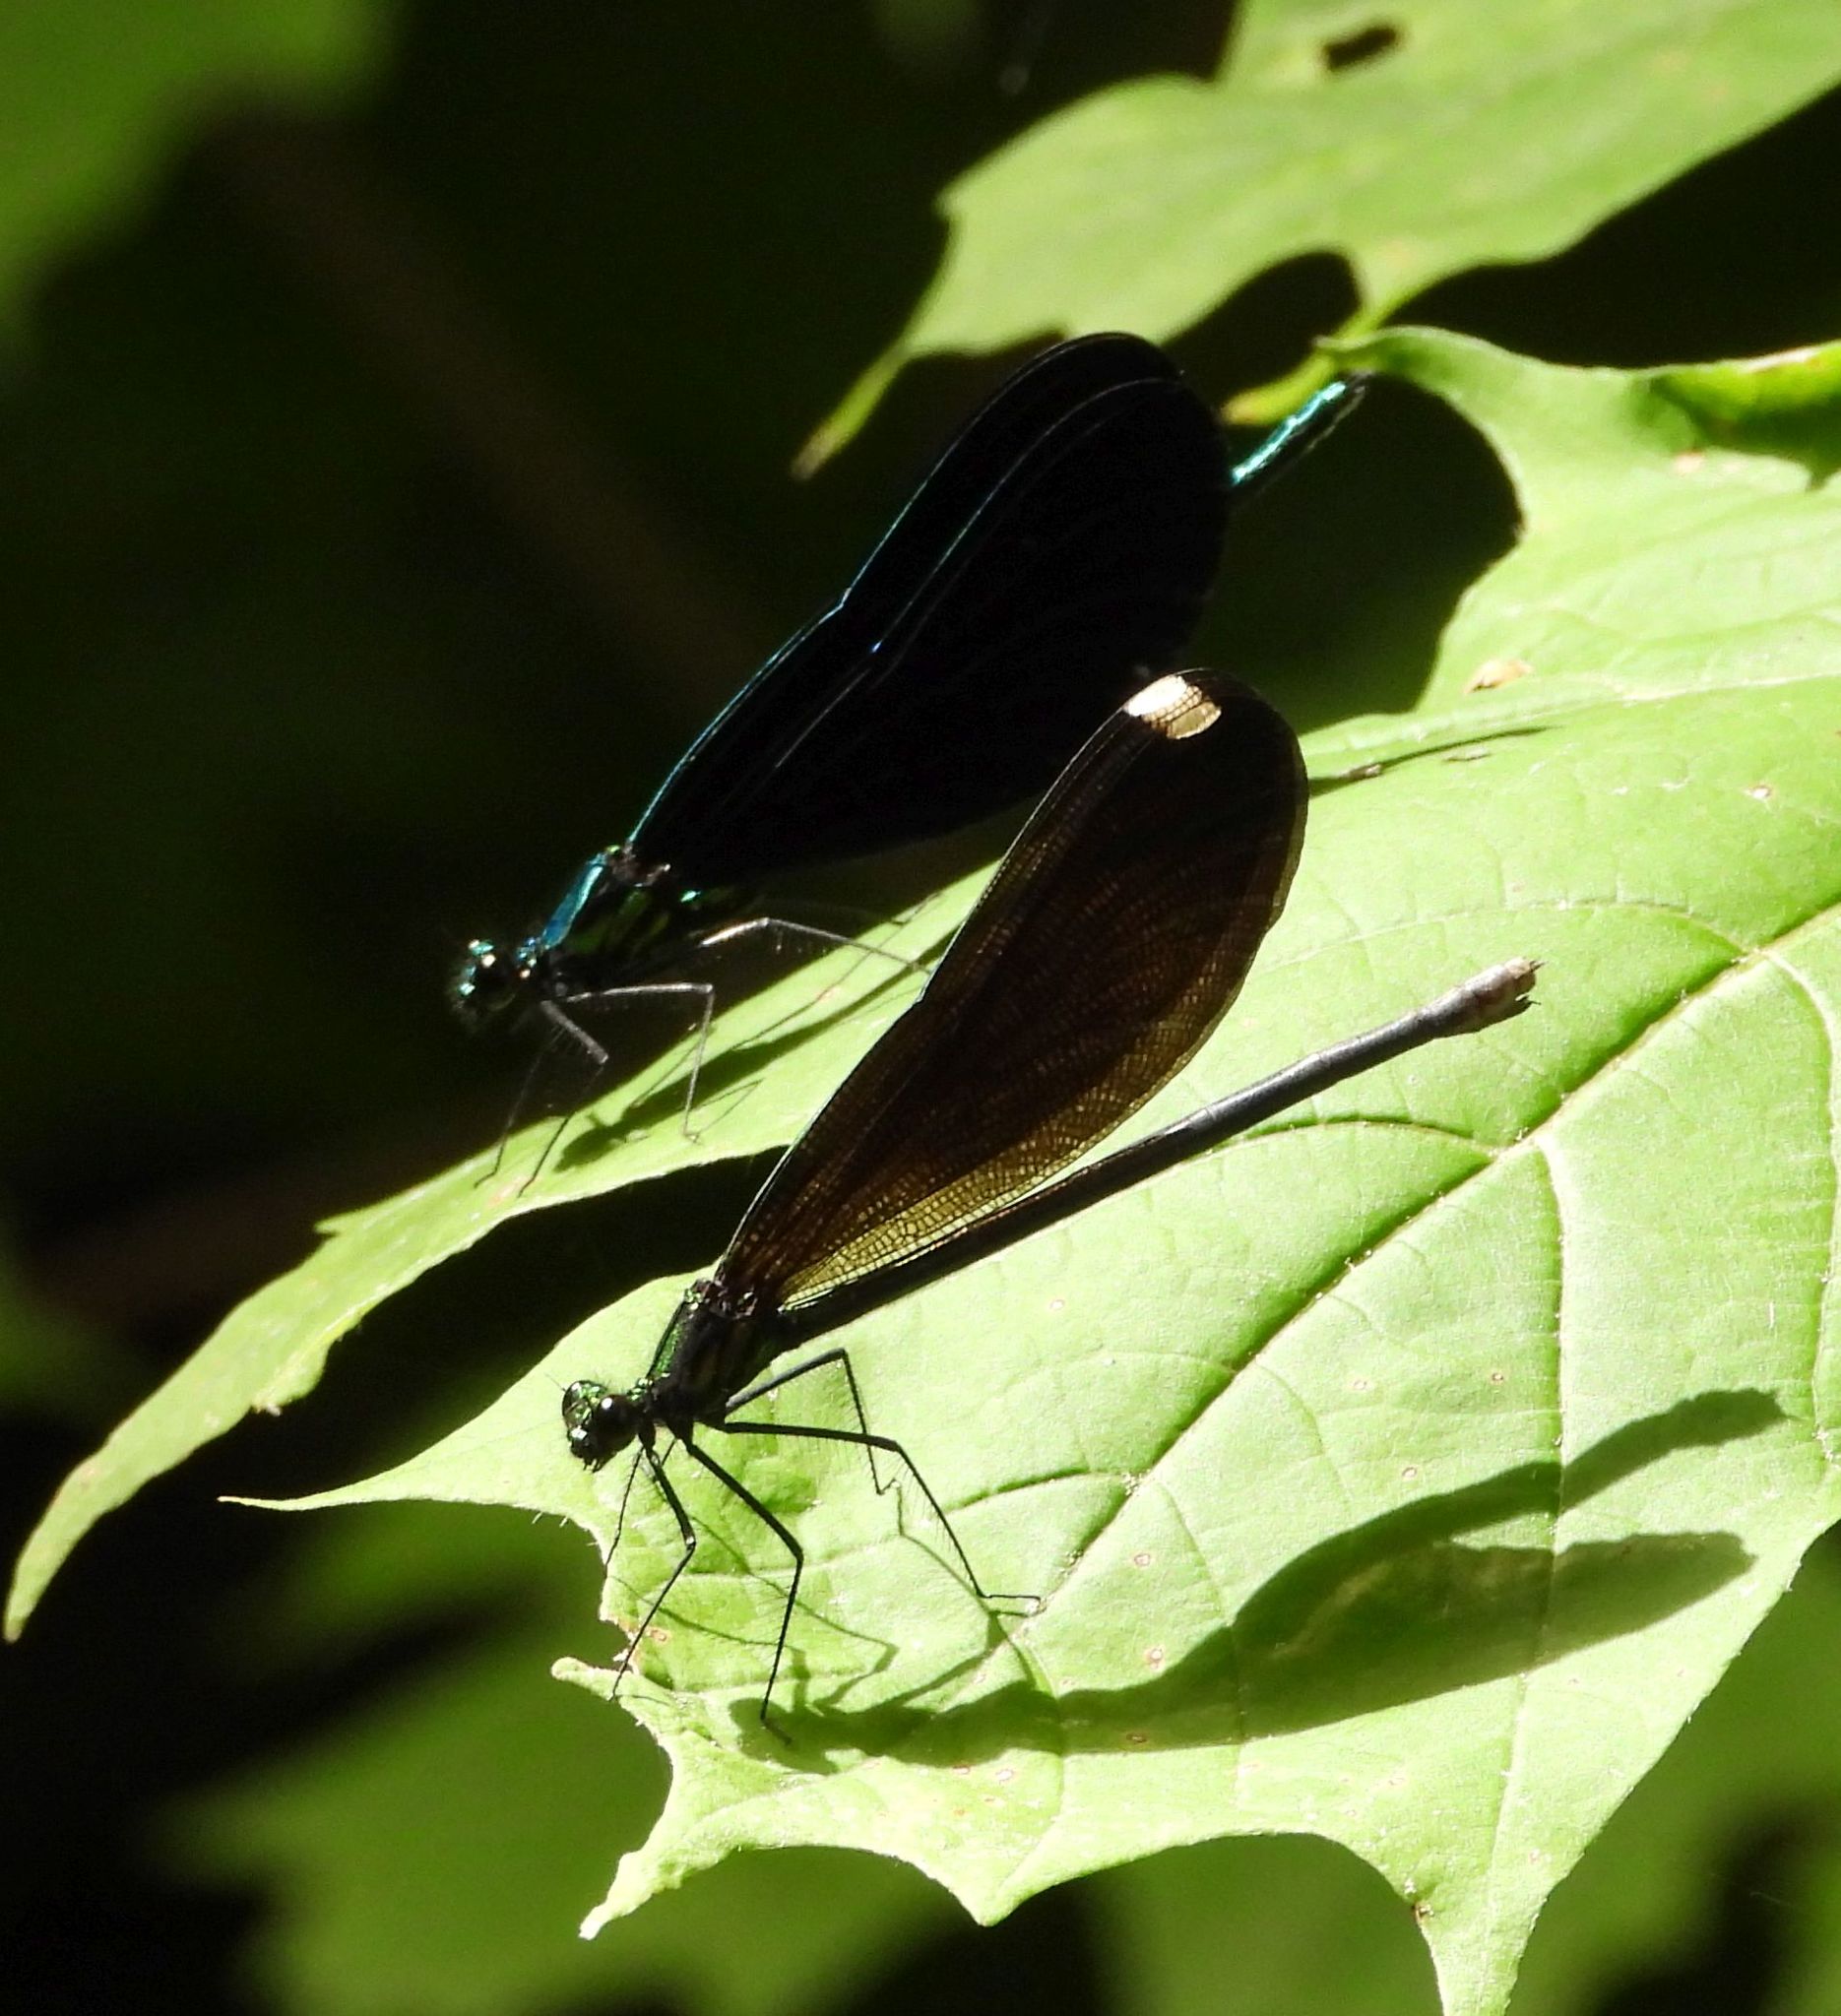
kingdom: Animalia
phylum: Arthropoda
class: Insecta
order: Odonata
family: Calopterygidae
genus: Calopteryx
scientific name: Calopteryx maculata
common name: Ebony jewelwing
